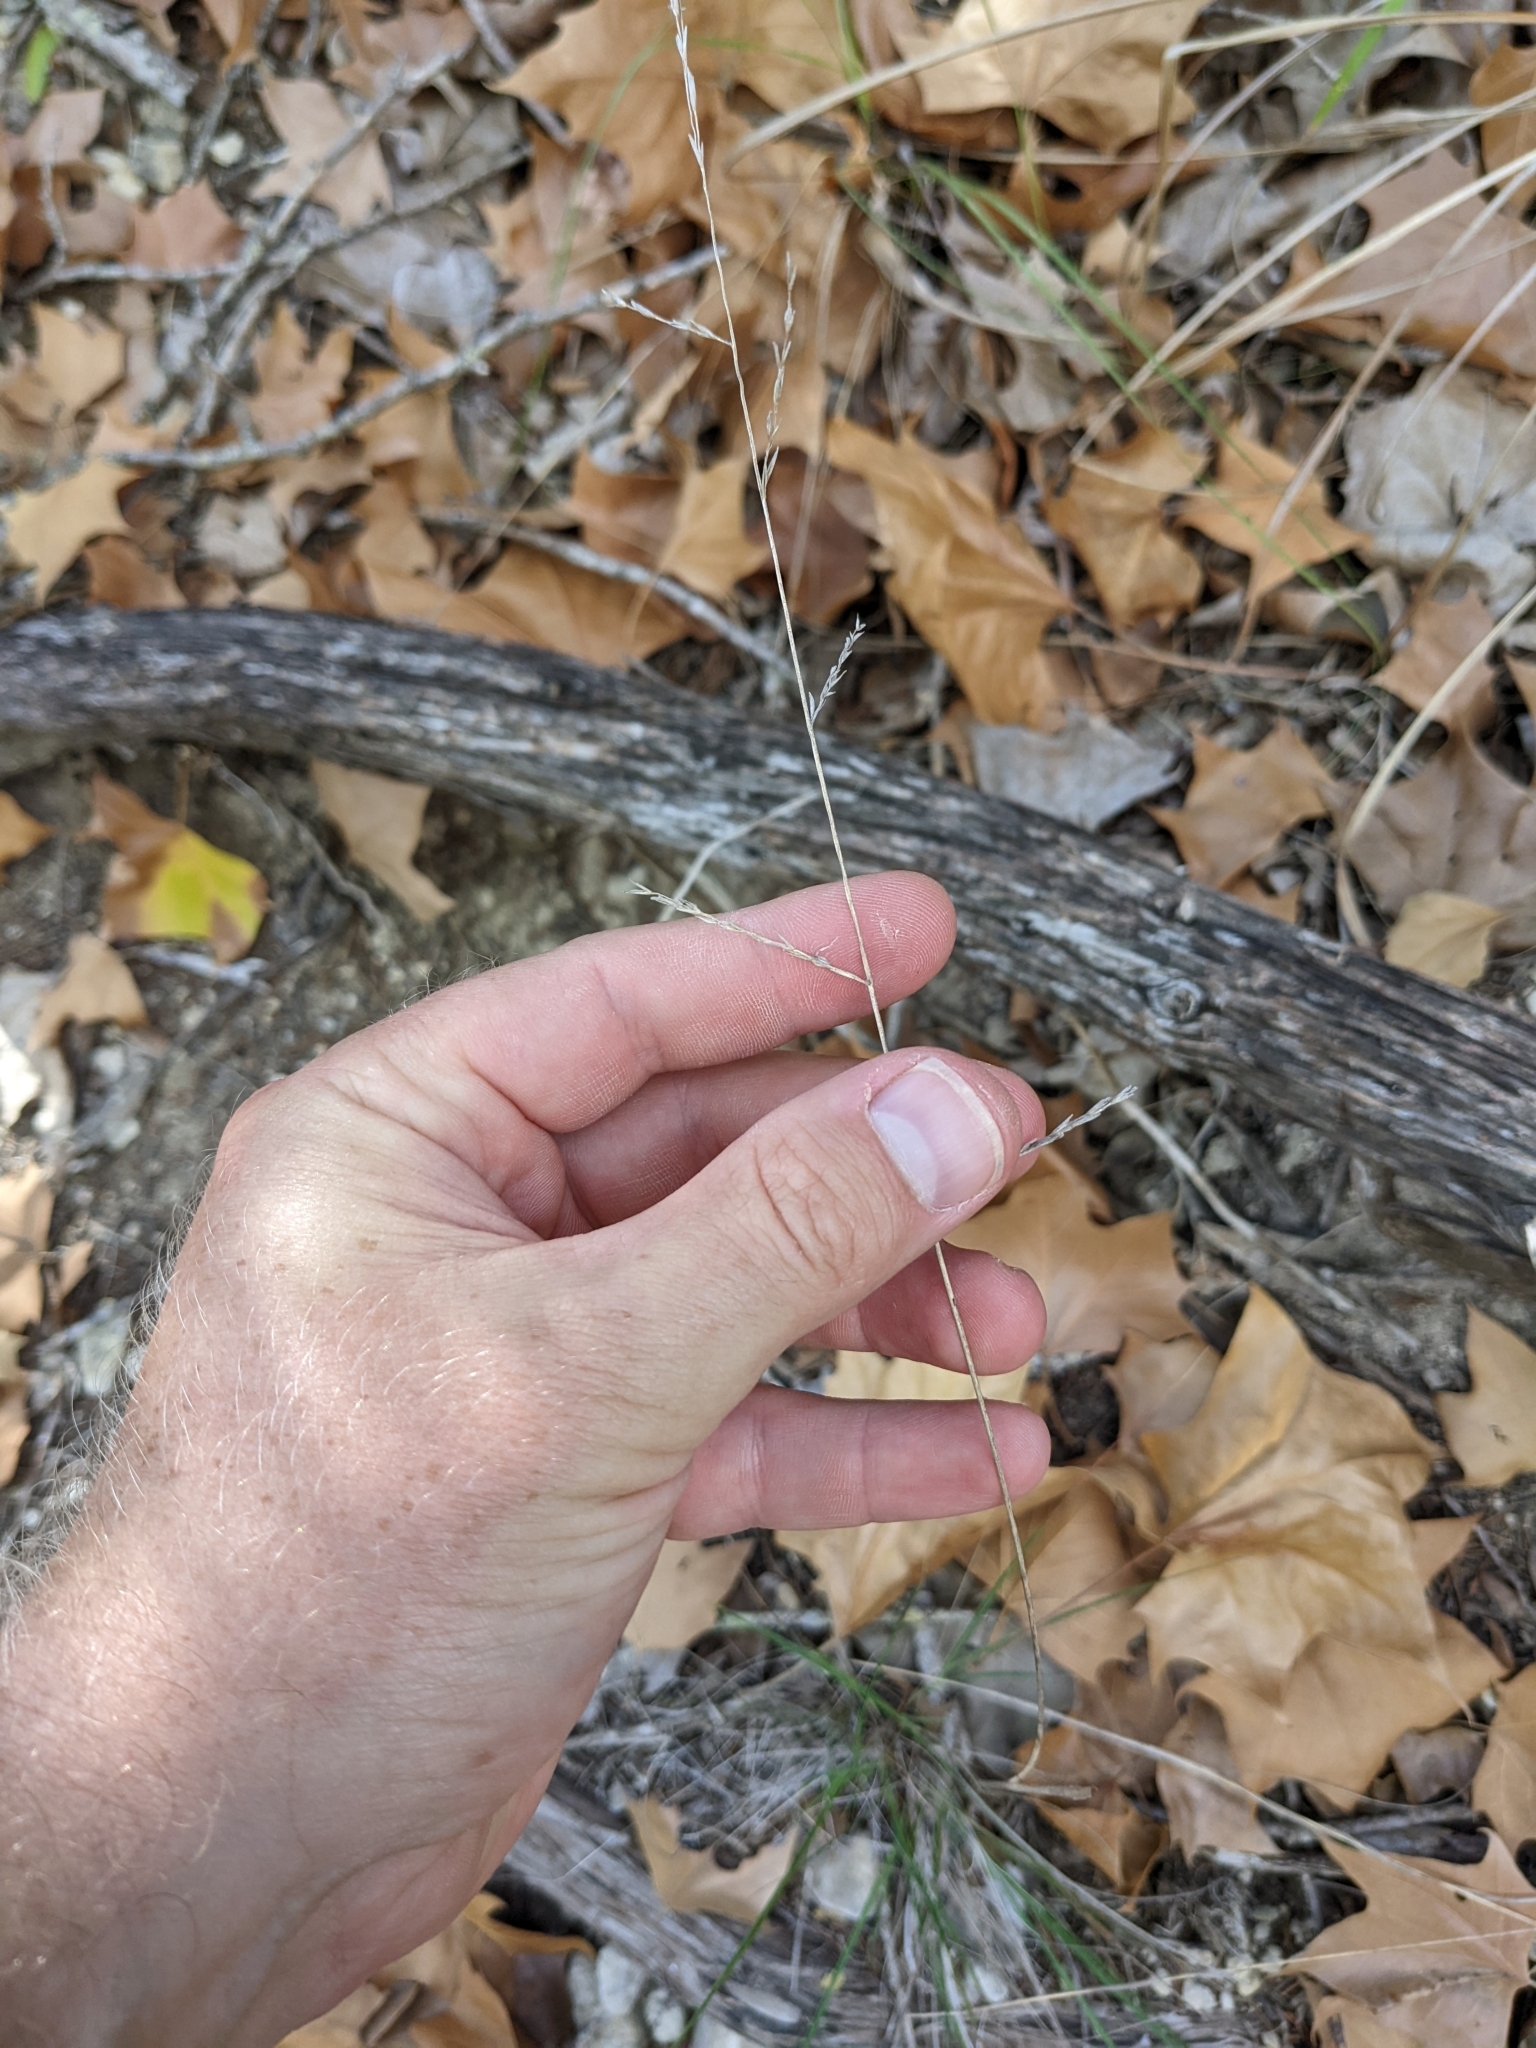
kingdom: Plantae
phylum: Tracheophyta
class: Liliopsida
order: Poales
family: Poaceae
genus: Tridentopsis
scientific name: Tridentopsis buckleyana
